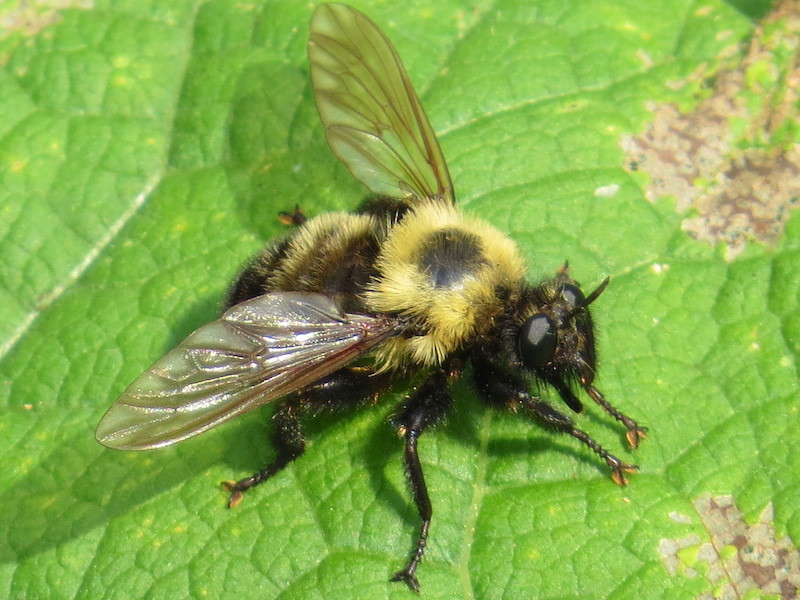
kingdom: Animalia
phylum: Arthropoda
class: Insecta
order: Diptera
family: Asilidae
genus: Laphria
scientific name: Laphria thoracica
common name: Bumble bee mimic robber fly
